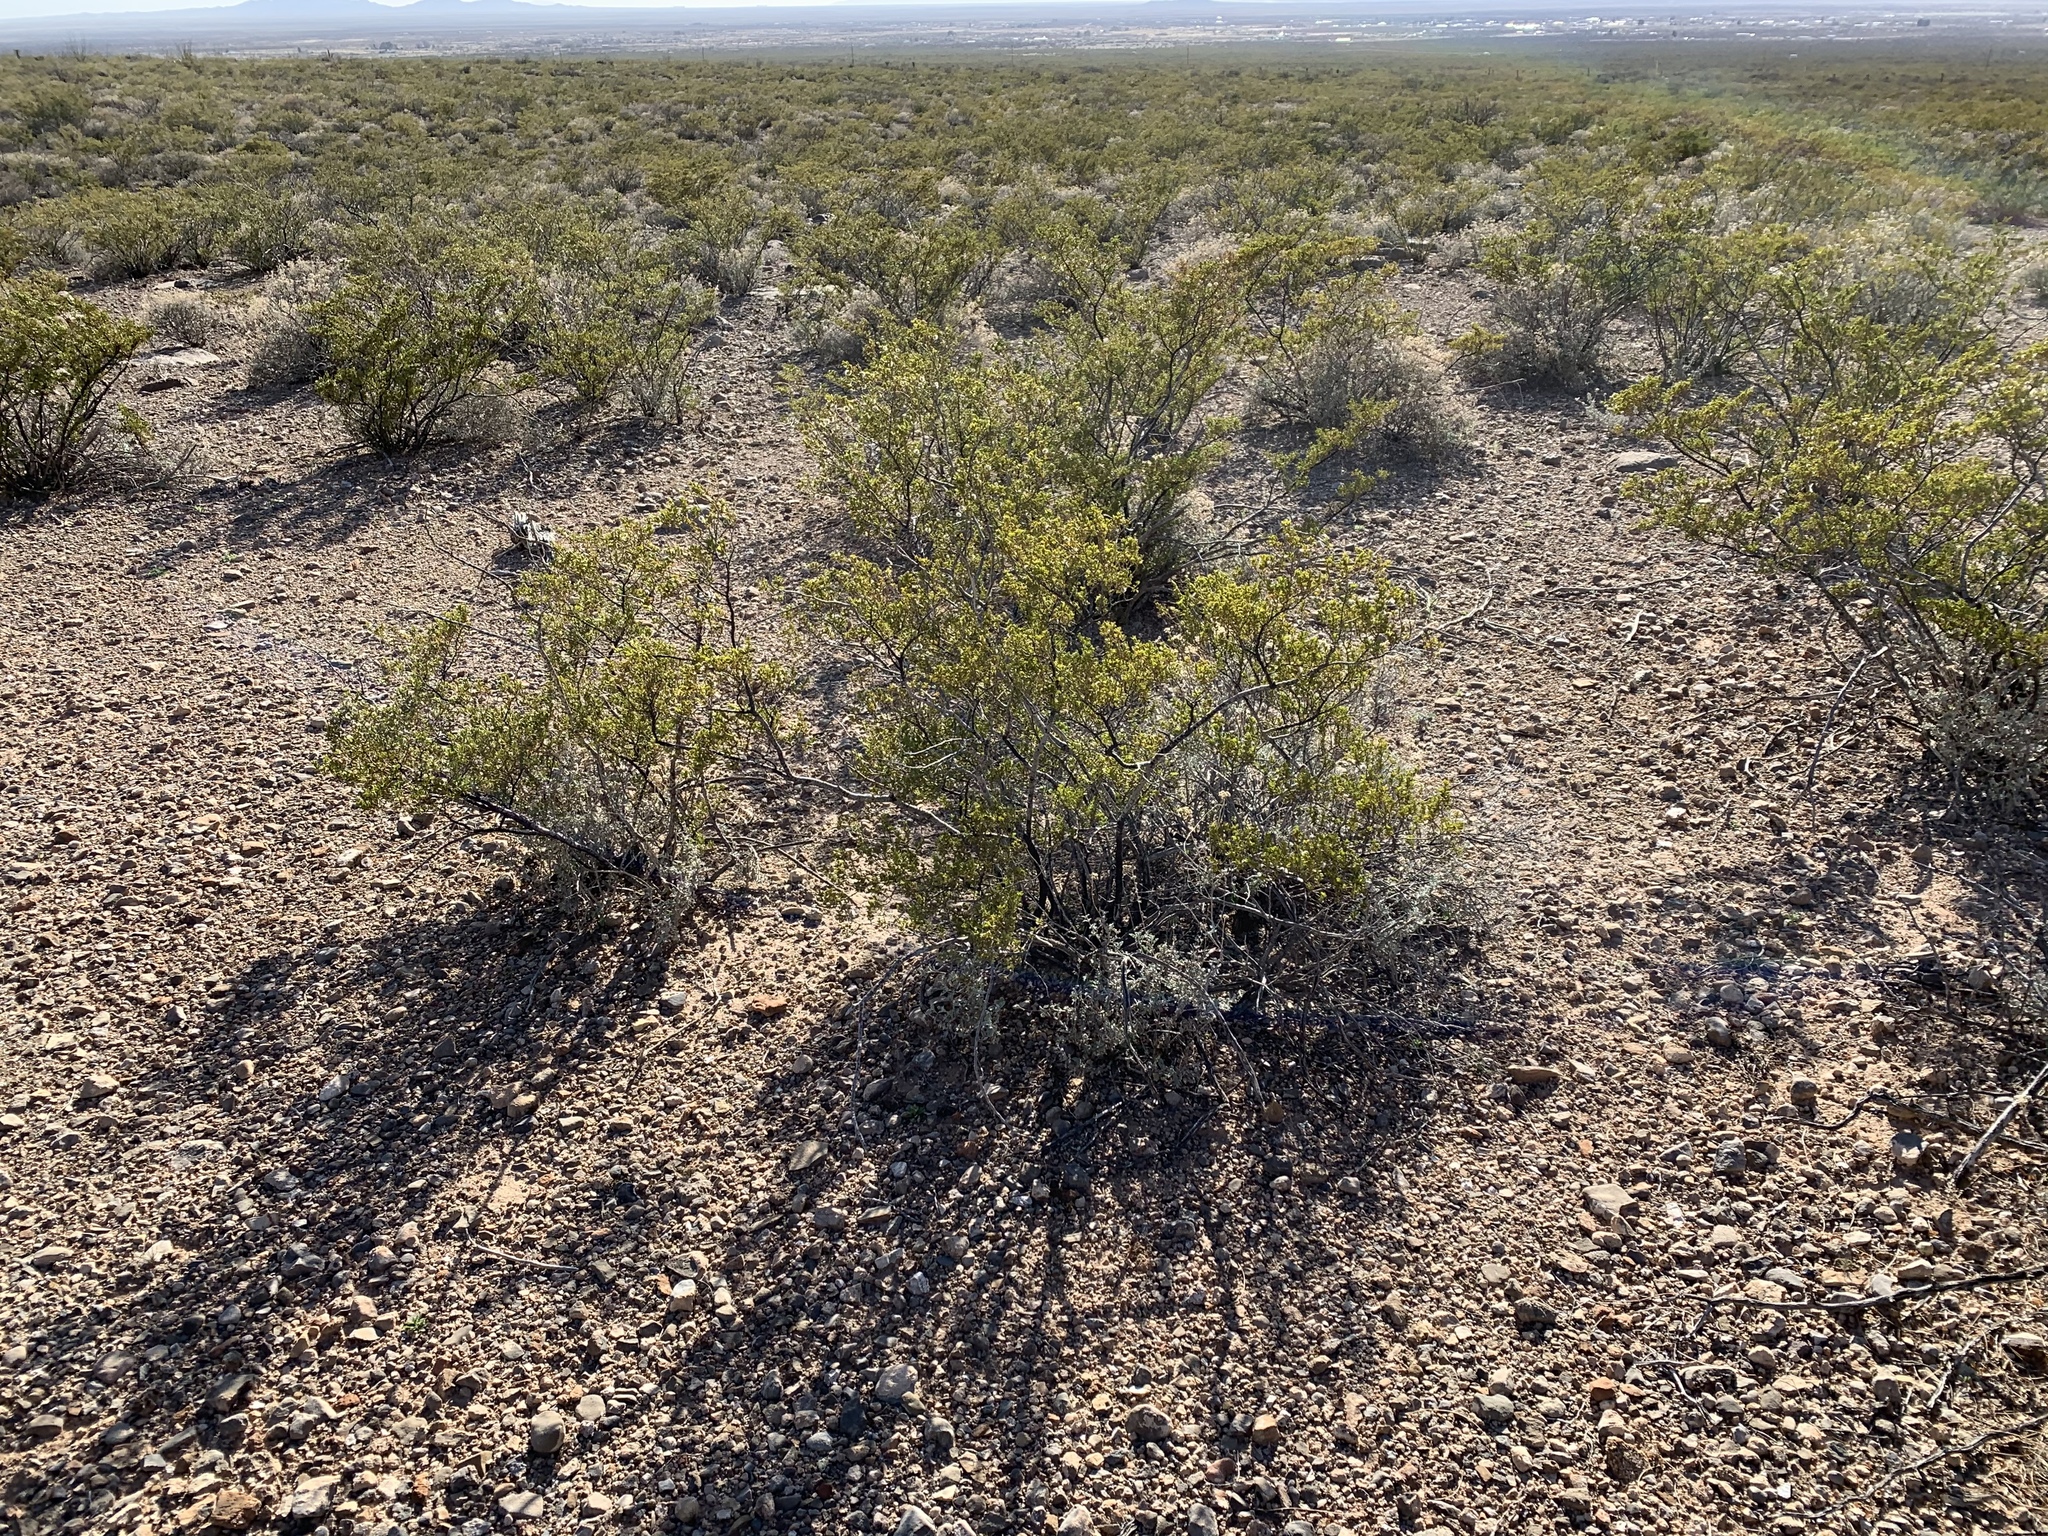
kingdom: Plantae
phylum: Tracheophyta
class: Magnoliopsida
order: Zygophyllales
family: Zygophyllaceae
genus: Larrea
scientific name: Larrea tridentata
